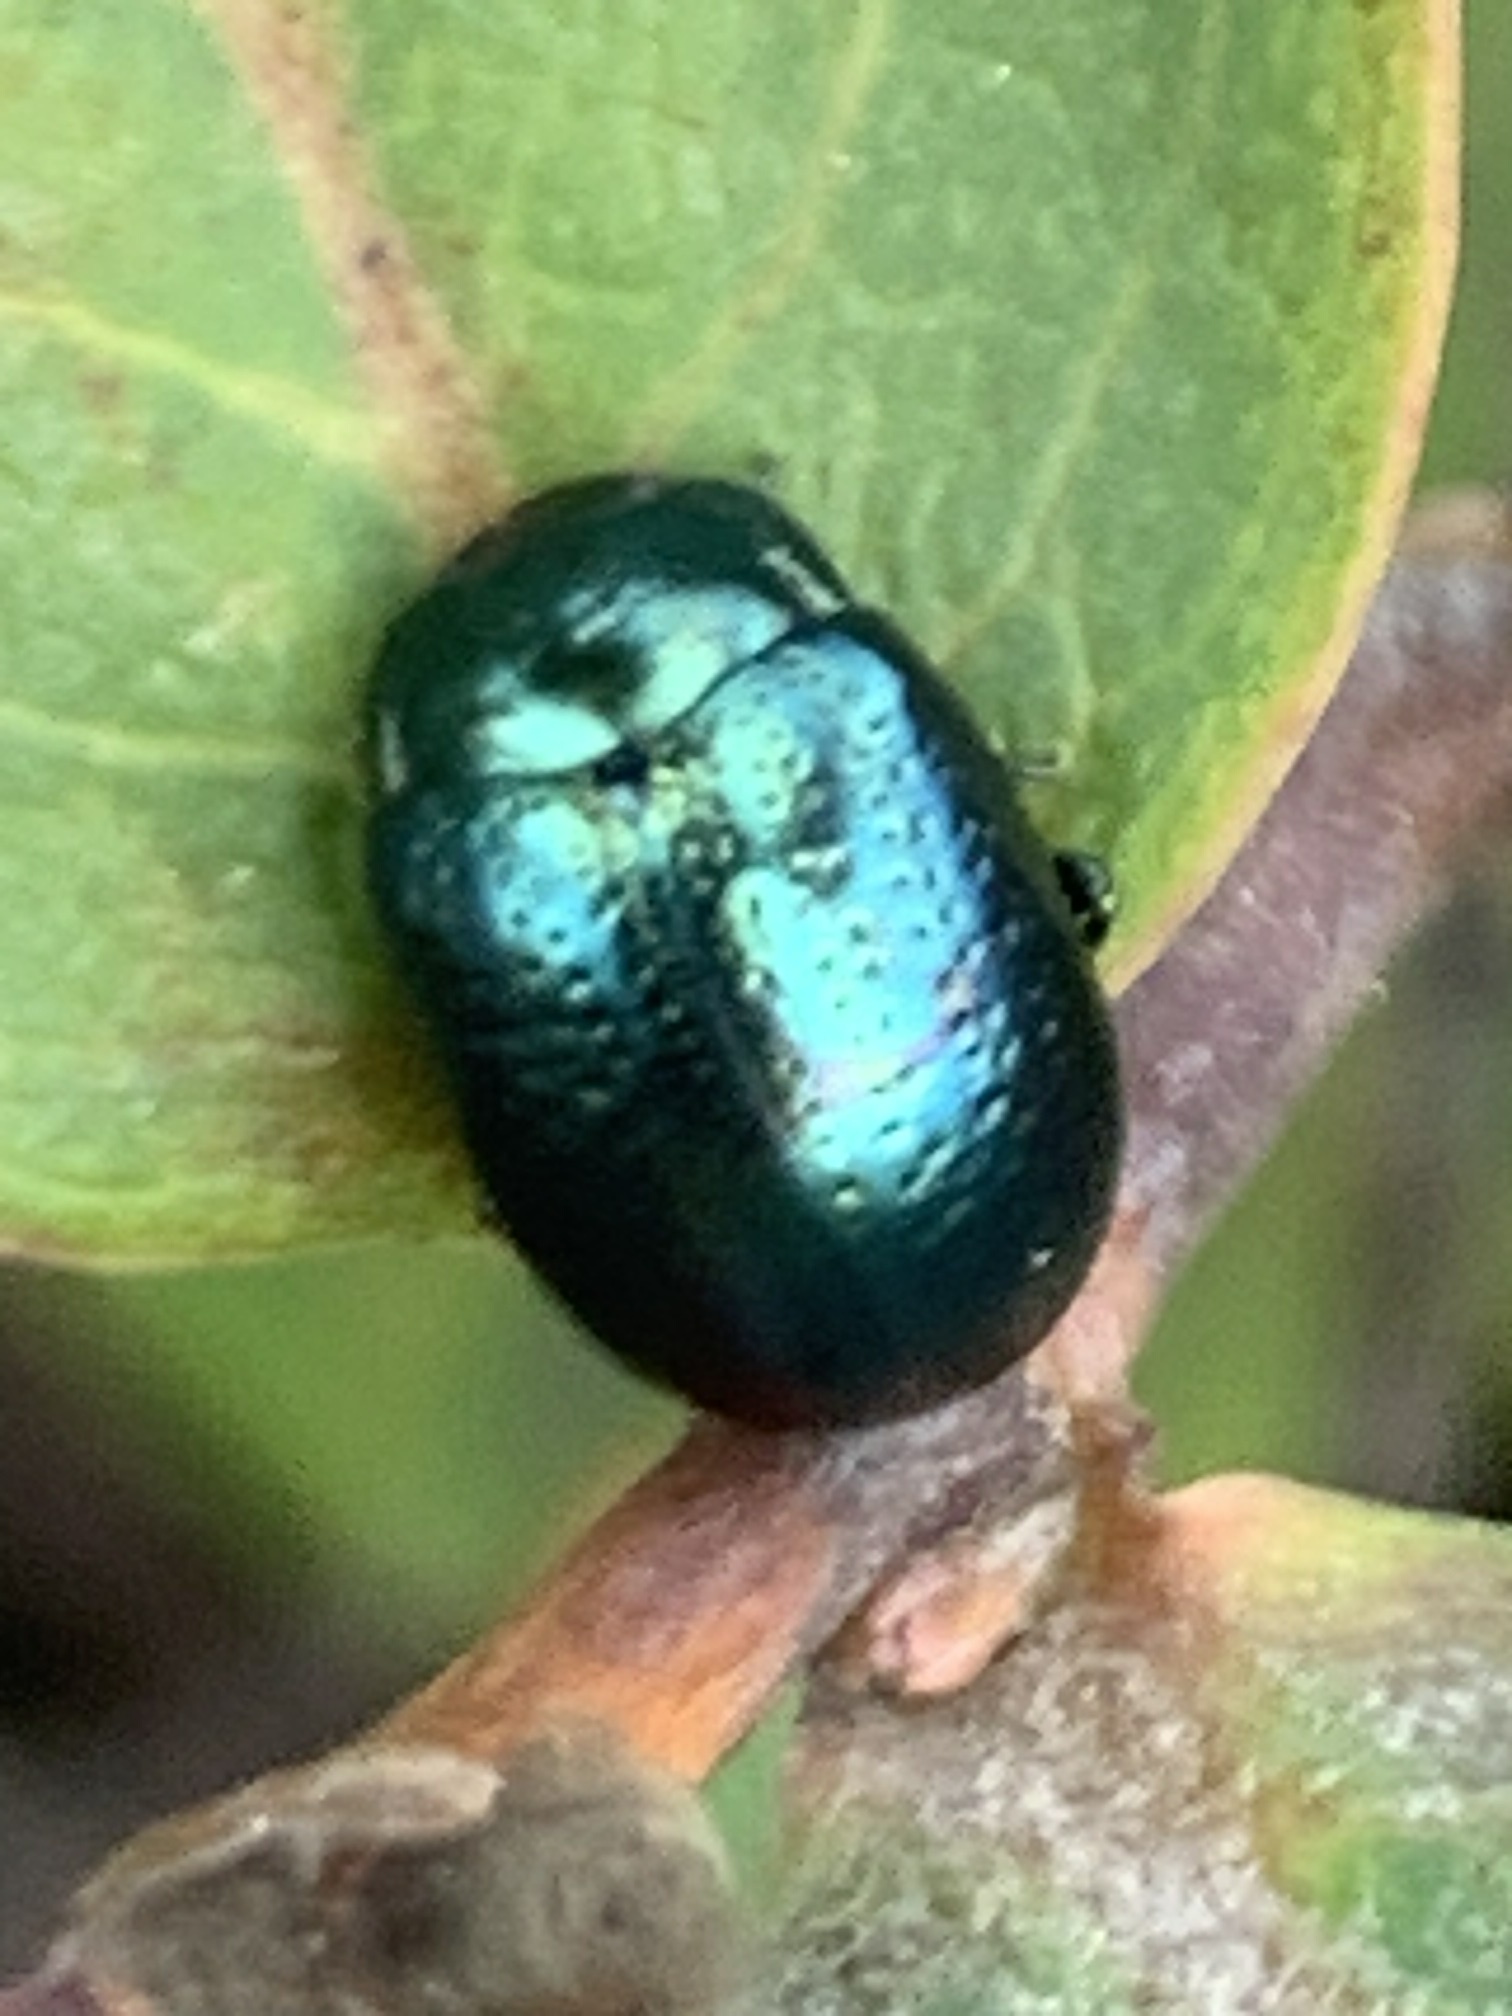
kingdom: Animalia
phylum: Arthropoda
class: Insecta
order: Coleoptera
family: Chrysomelidae
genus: Chrysolina
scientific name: Chrysolina hyperici
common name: St. johnswort beetle
